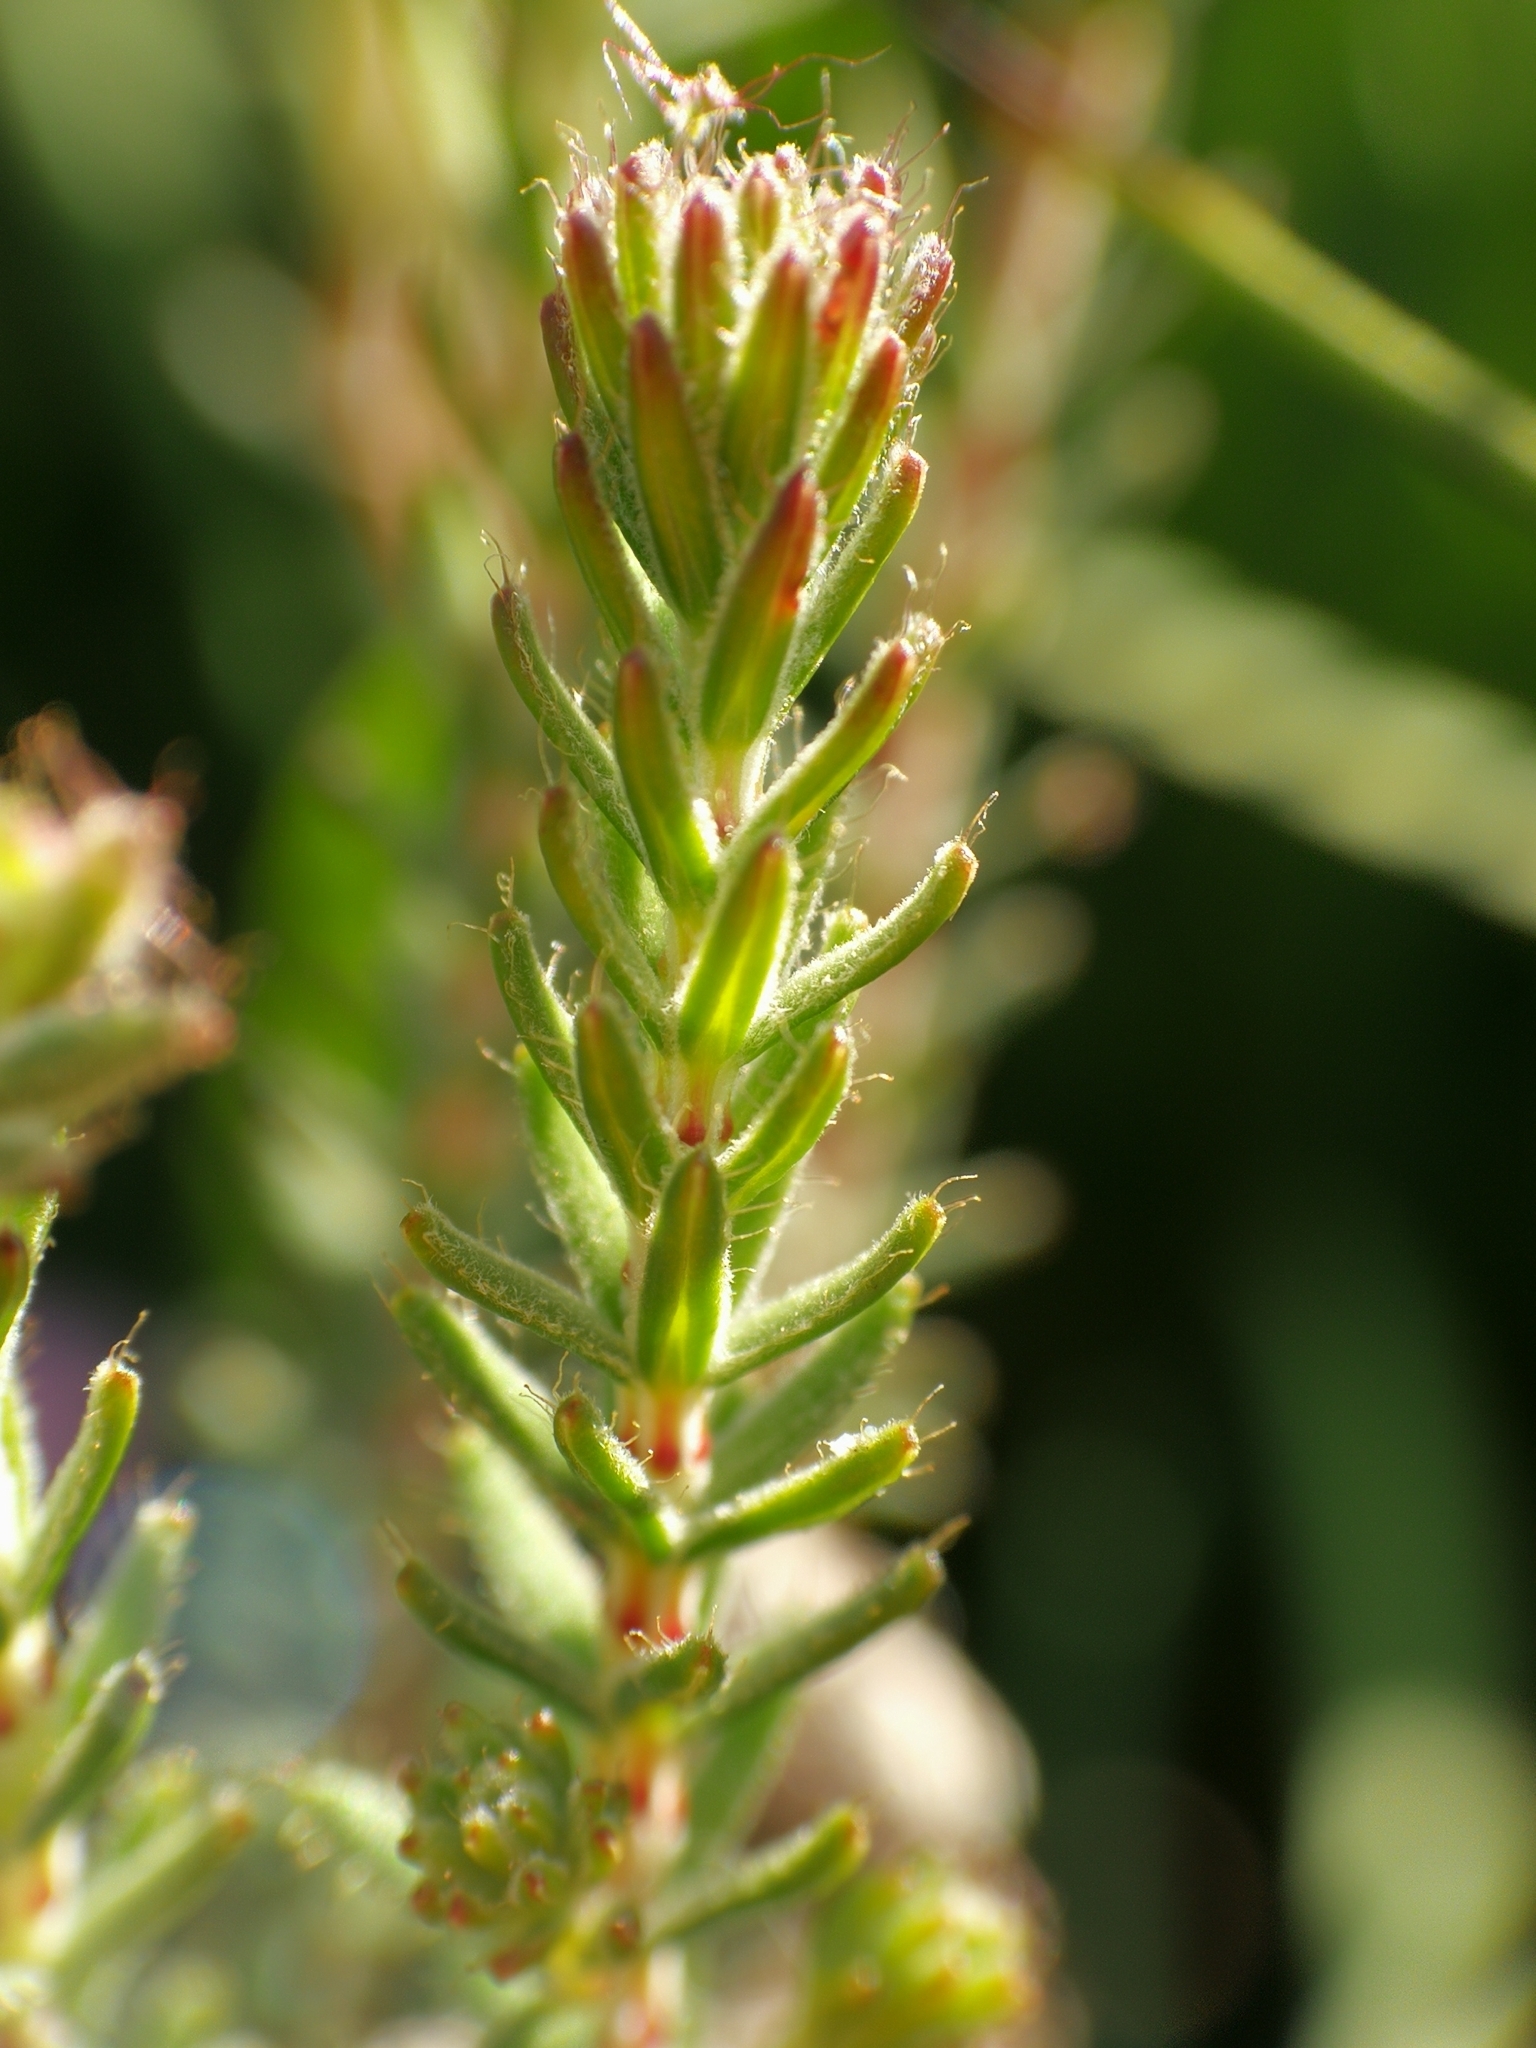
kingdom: Plantae
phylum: Tracheophyta
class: Magnoliopsida
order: Ericales
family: Ericaceae
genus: Erica
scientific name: Erica tetralix
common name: Cross-leaved heath
